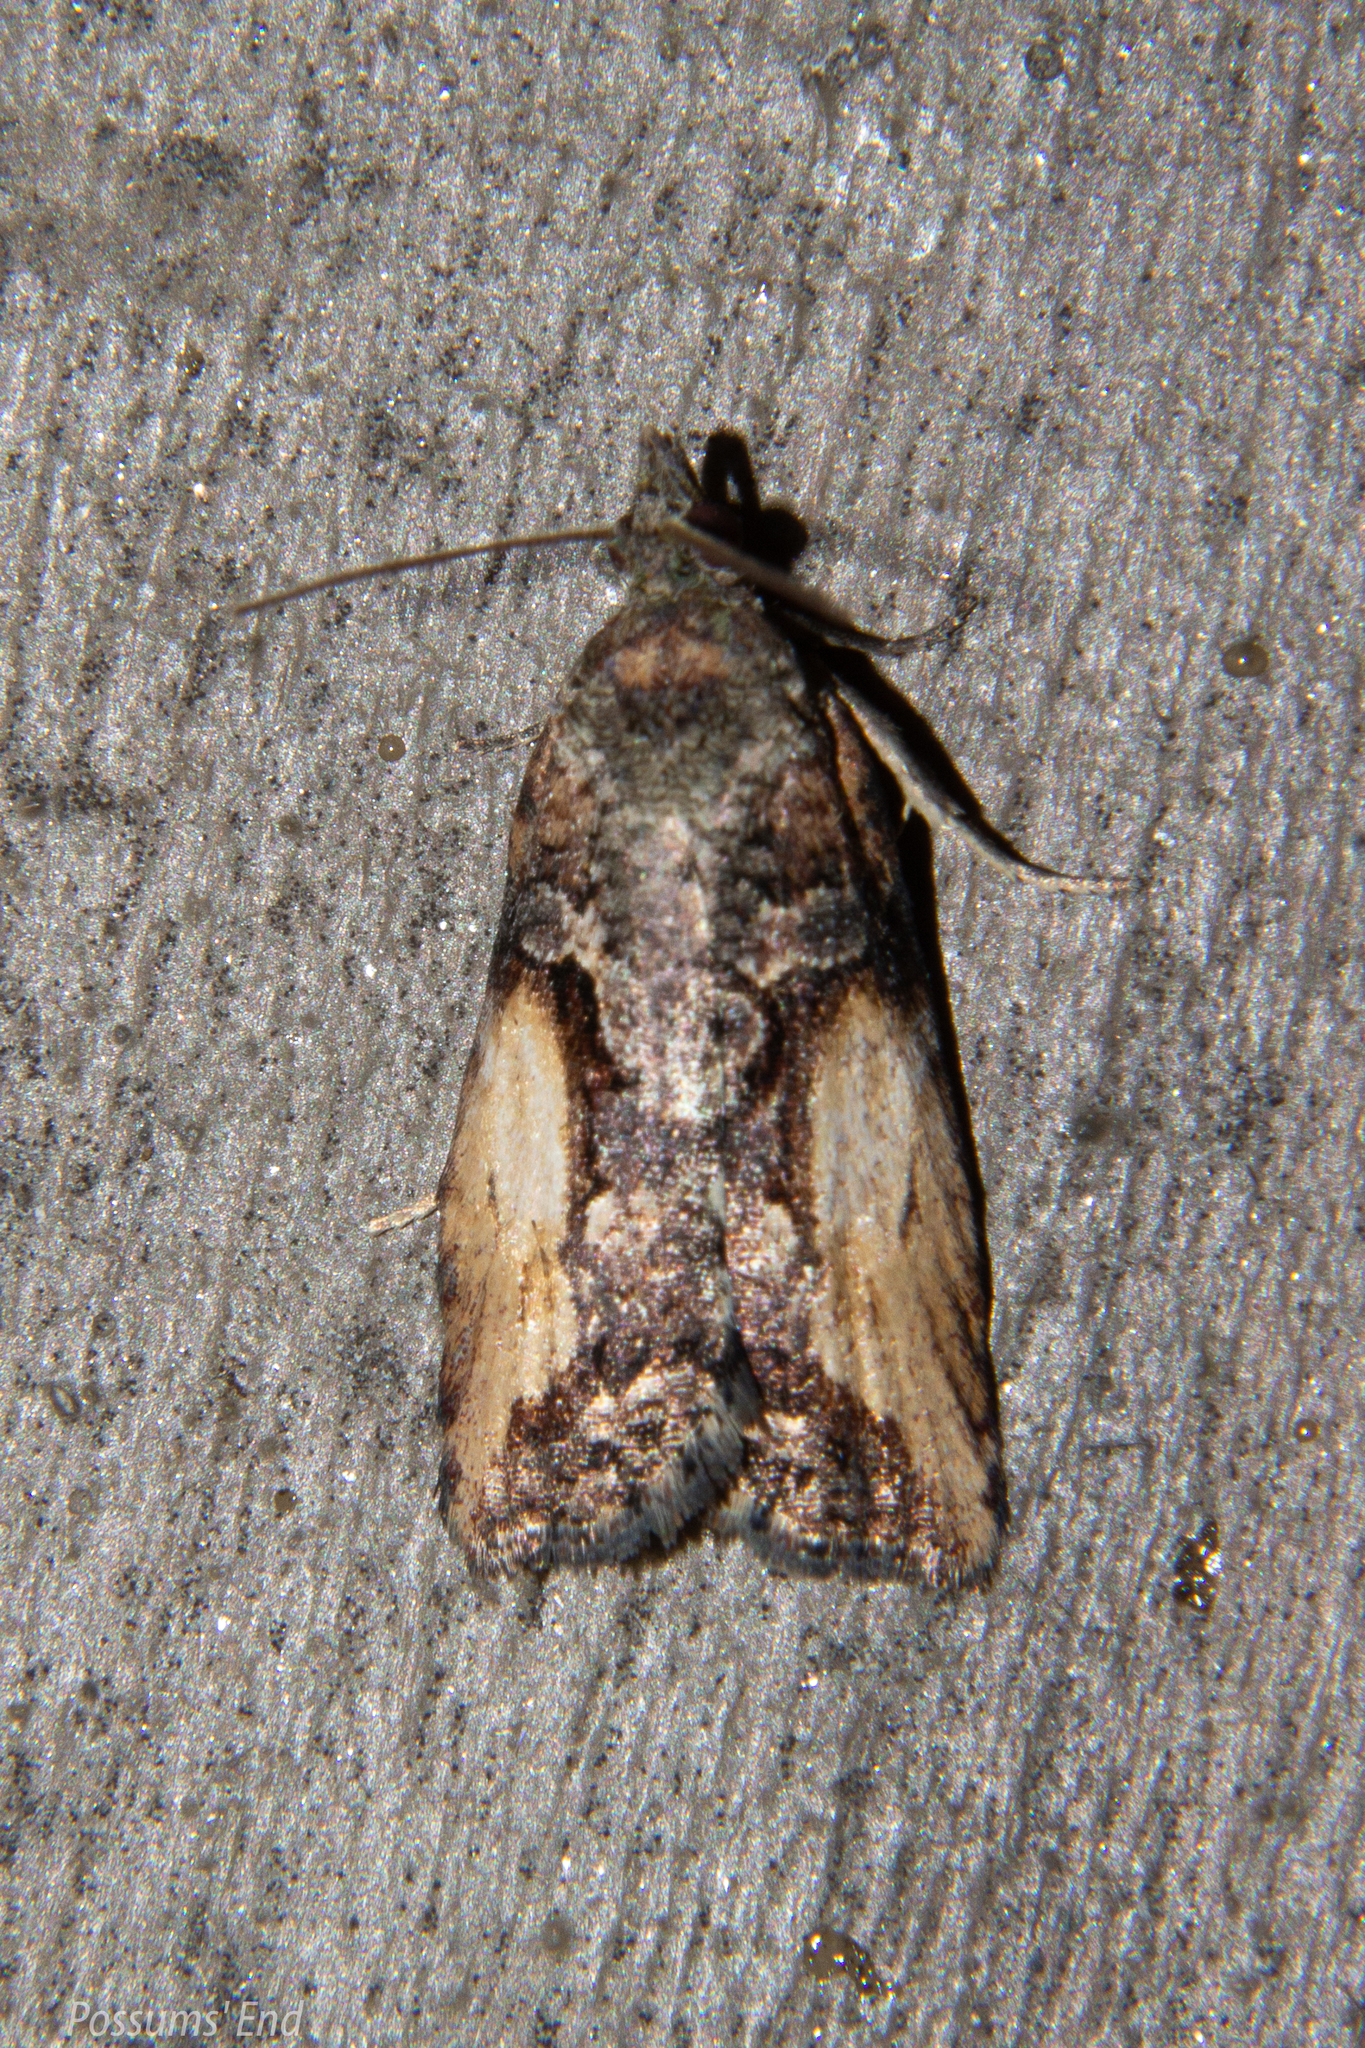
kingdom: Animalia
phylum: Arthropoda
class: Insecta
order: Lepidoptera
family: Tortricidae
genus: Harmologa
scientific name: Harmologa scoliastis
